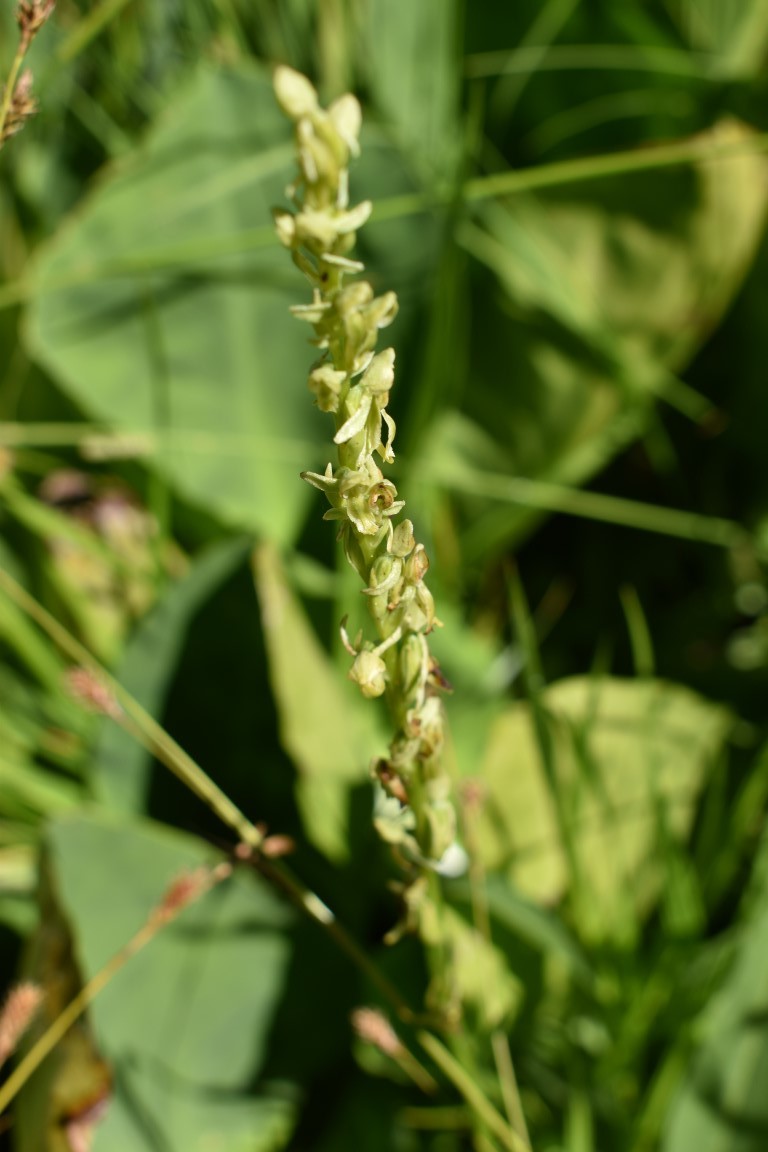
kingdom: Plantae
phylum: Tracheophyta
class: Liliopsida
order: Asparagales
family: Orchidaceae
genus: Platanthera
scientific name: Platanthera stricta
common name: Slender bog orchid
